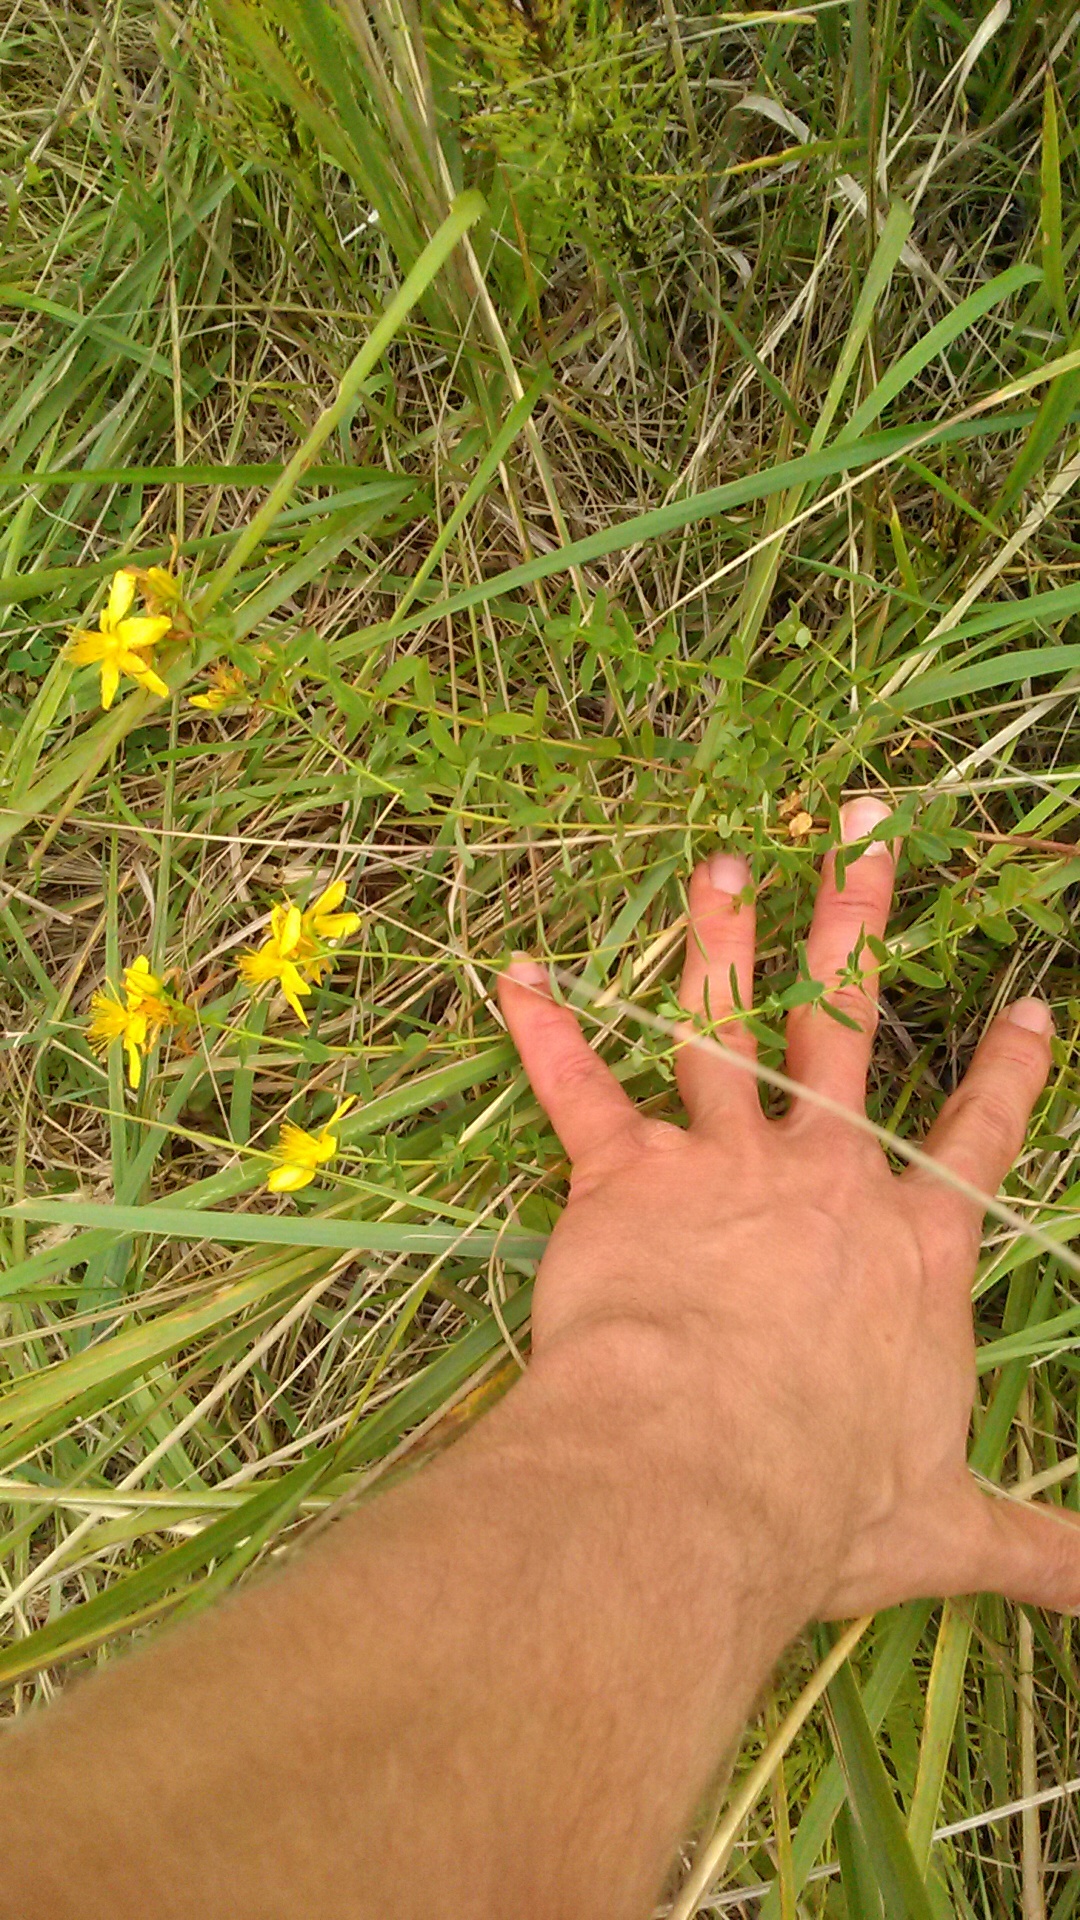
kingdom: Plantae
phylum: Tracheophyta
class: Magnoliopsida
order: Malpighiales
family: Hypericaceae
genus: Hypericum
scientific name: Hypericum perforatum
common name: Common st. johnswort
